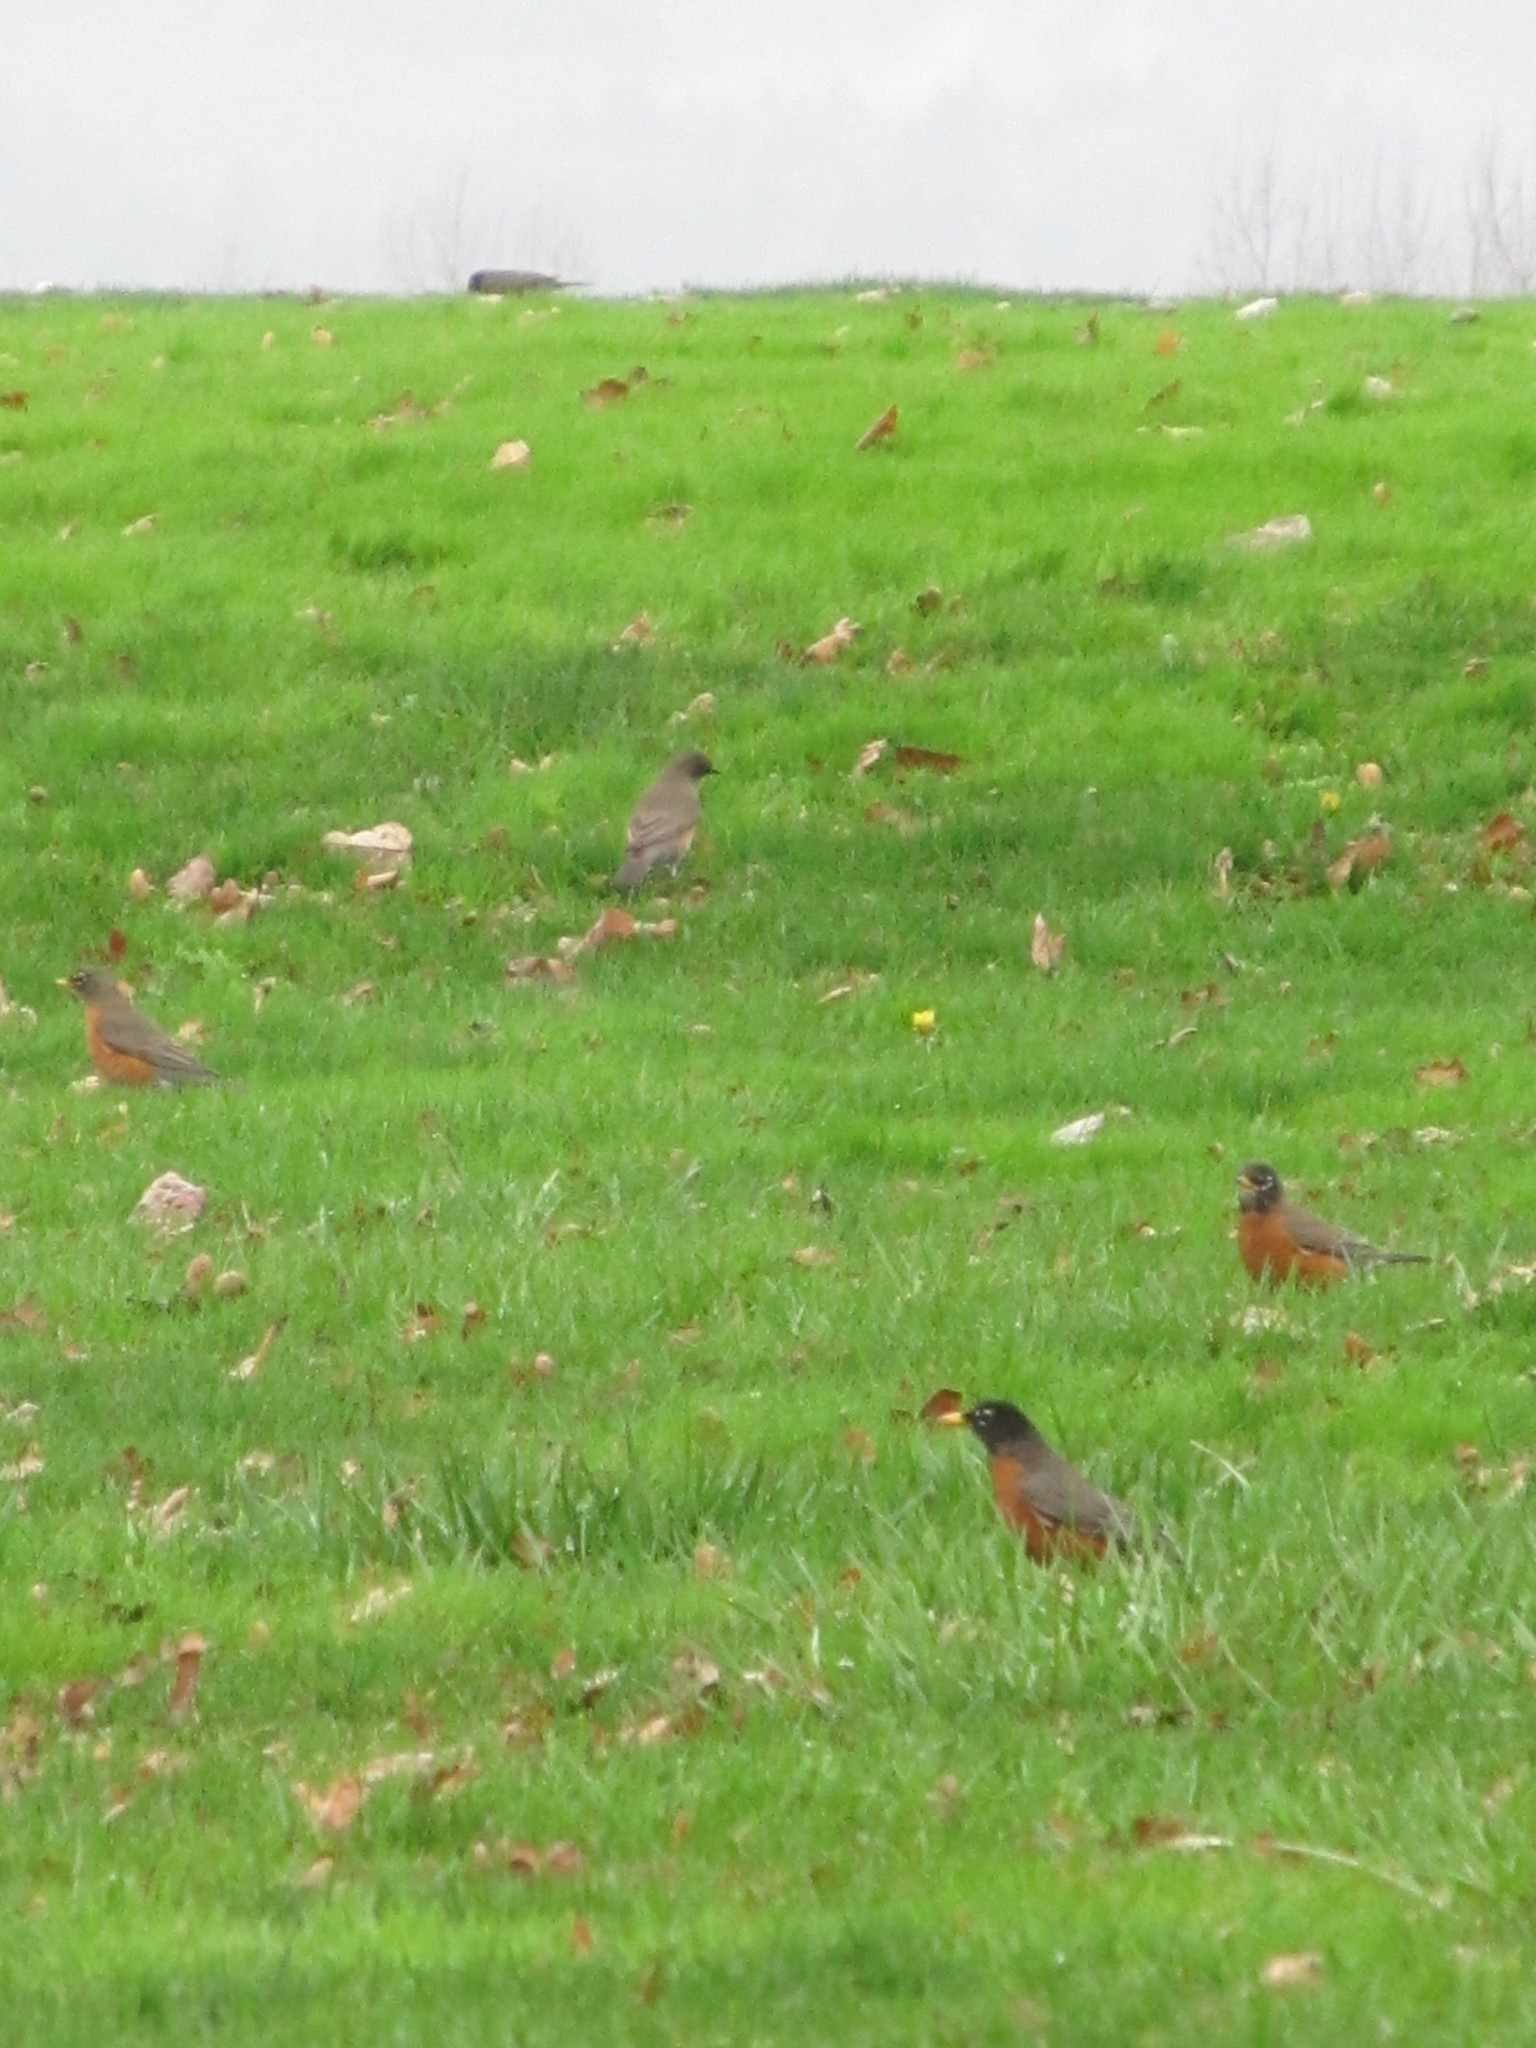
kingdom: Animalia
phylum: Chordata
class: Aves
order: Passeriformes
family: Turdidae
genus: Turdus
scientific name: Turdus migratorius
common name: American robin
